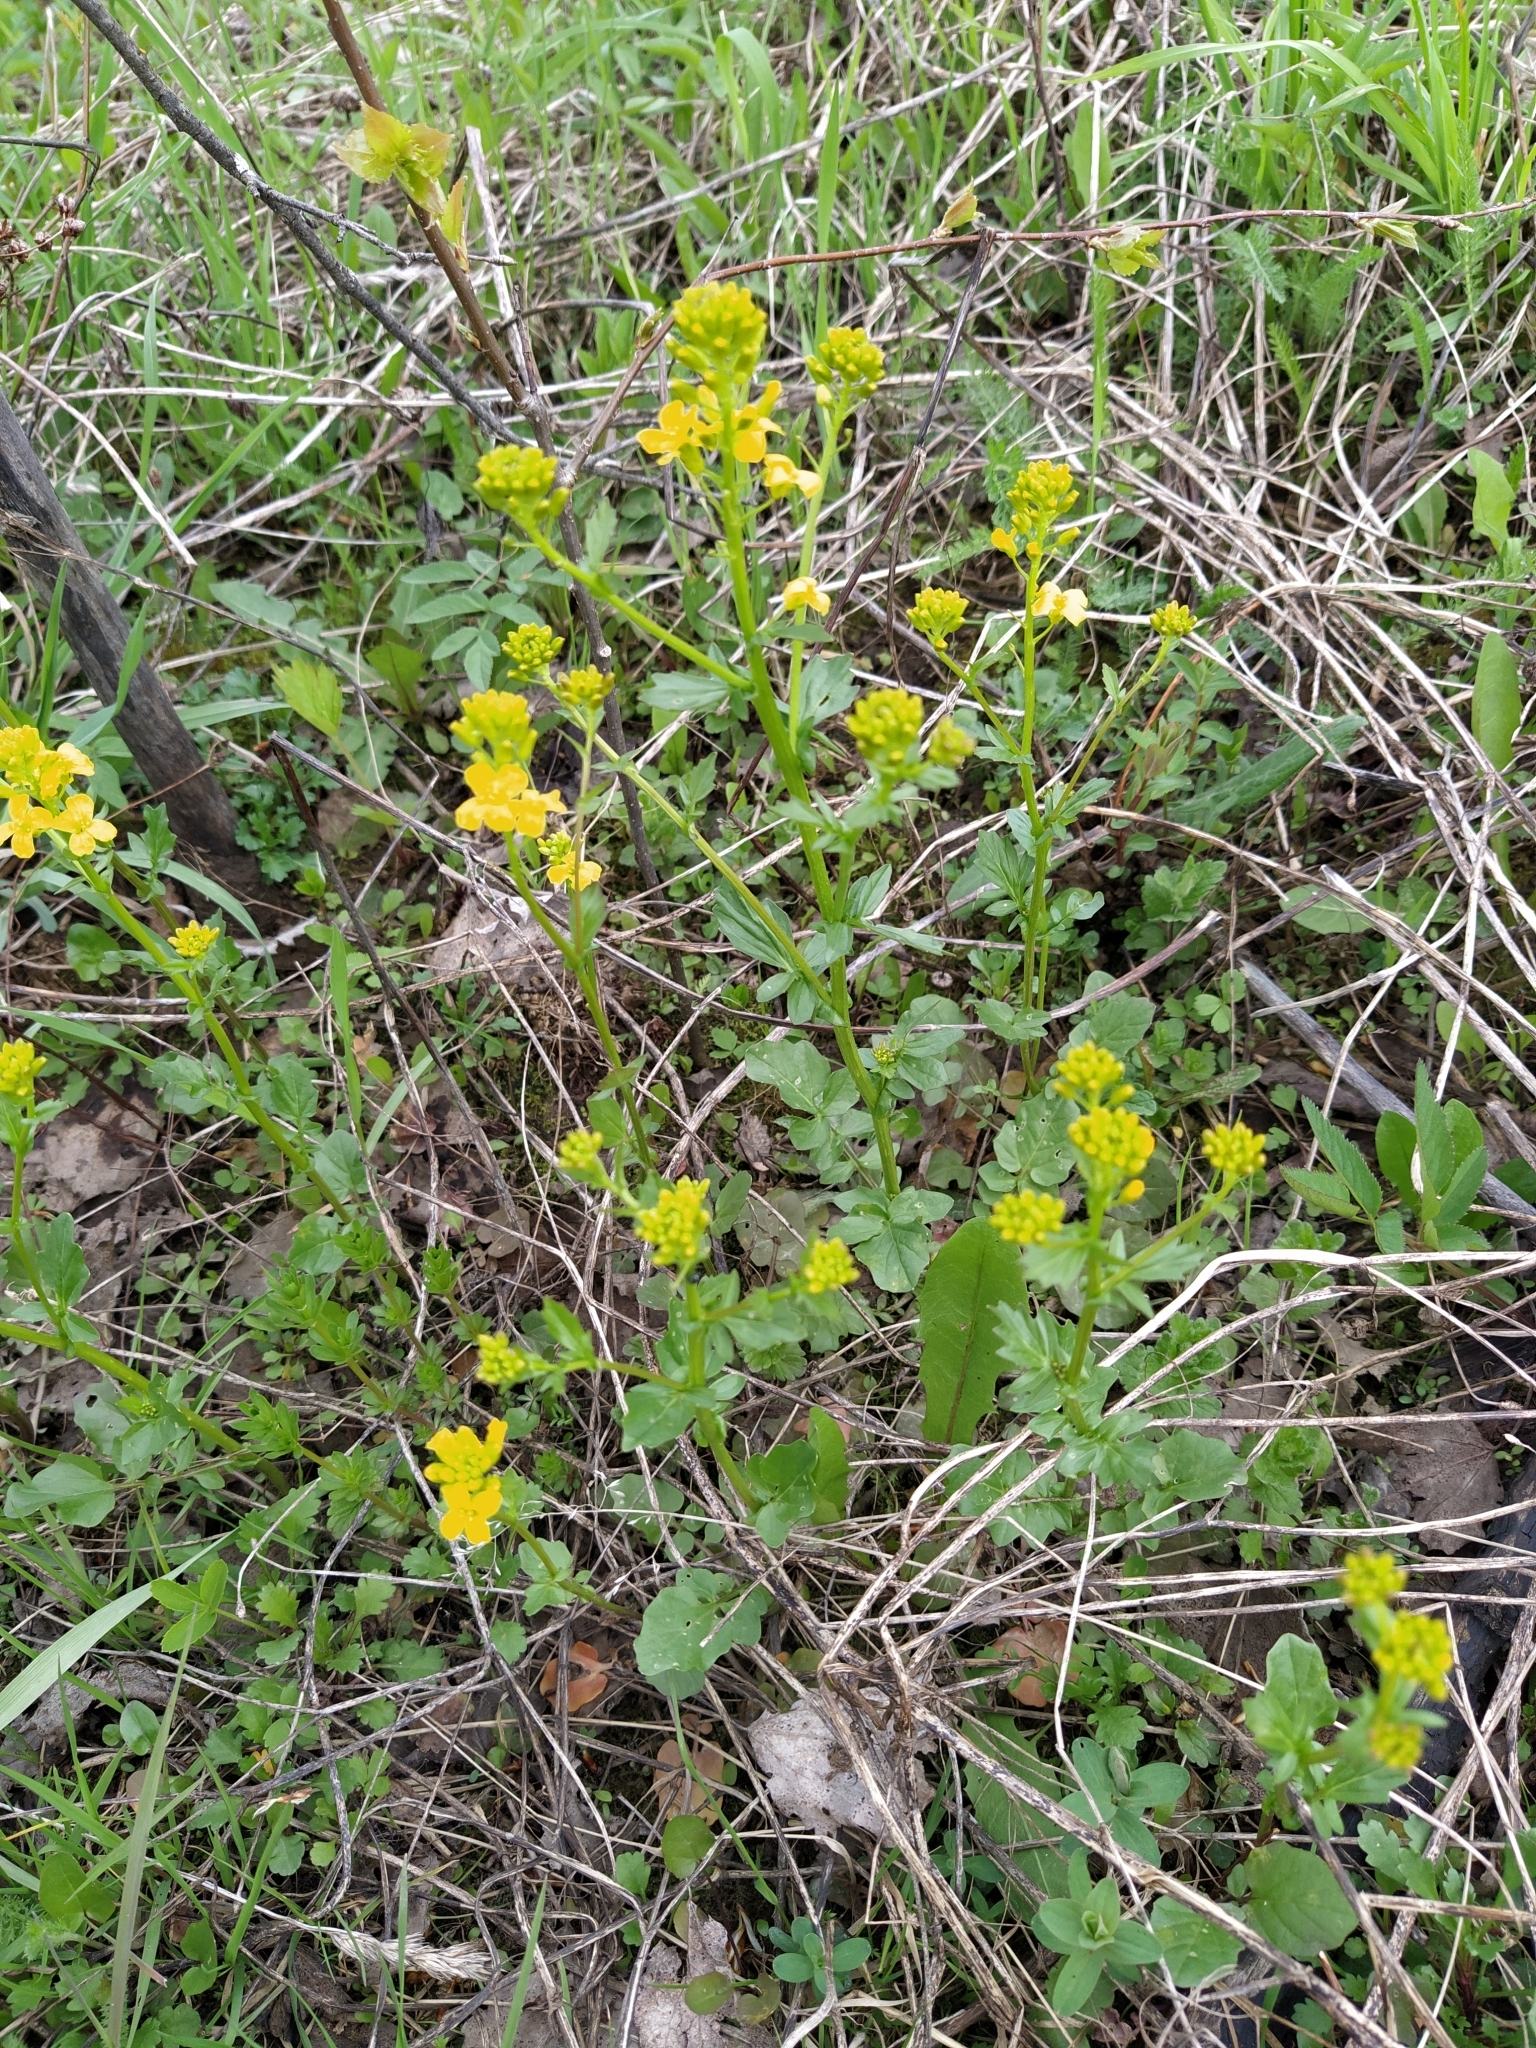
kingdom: Plantae
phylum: Tracheophyta
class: Magnoliopsida
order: Brassicales
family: Brassicaceae
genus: Barbarea
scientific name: Barbarea vulgaris
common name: Cressy-greens
